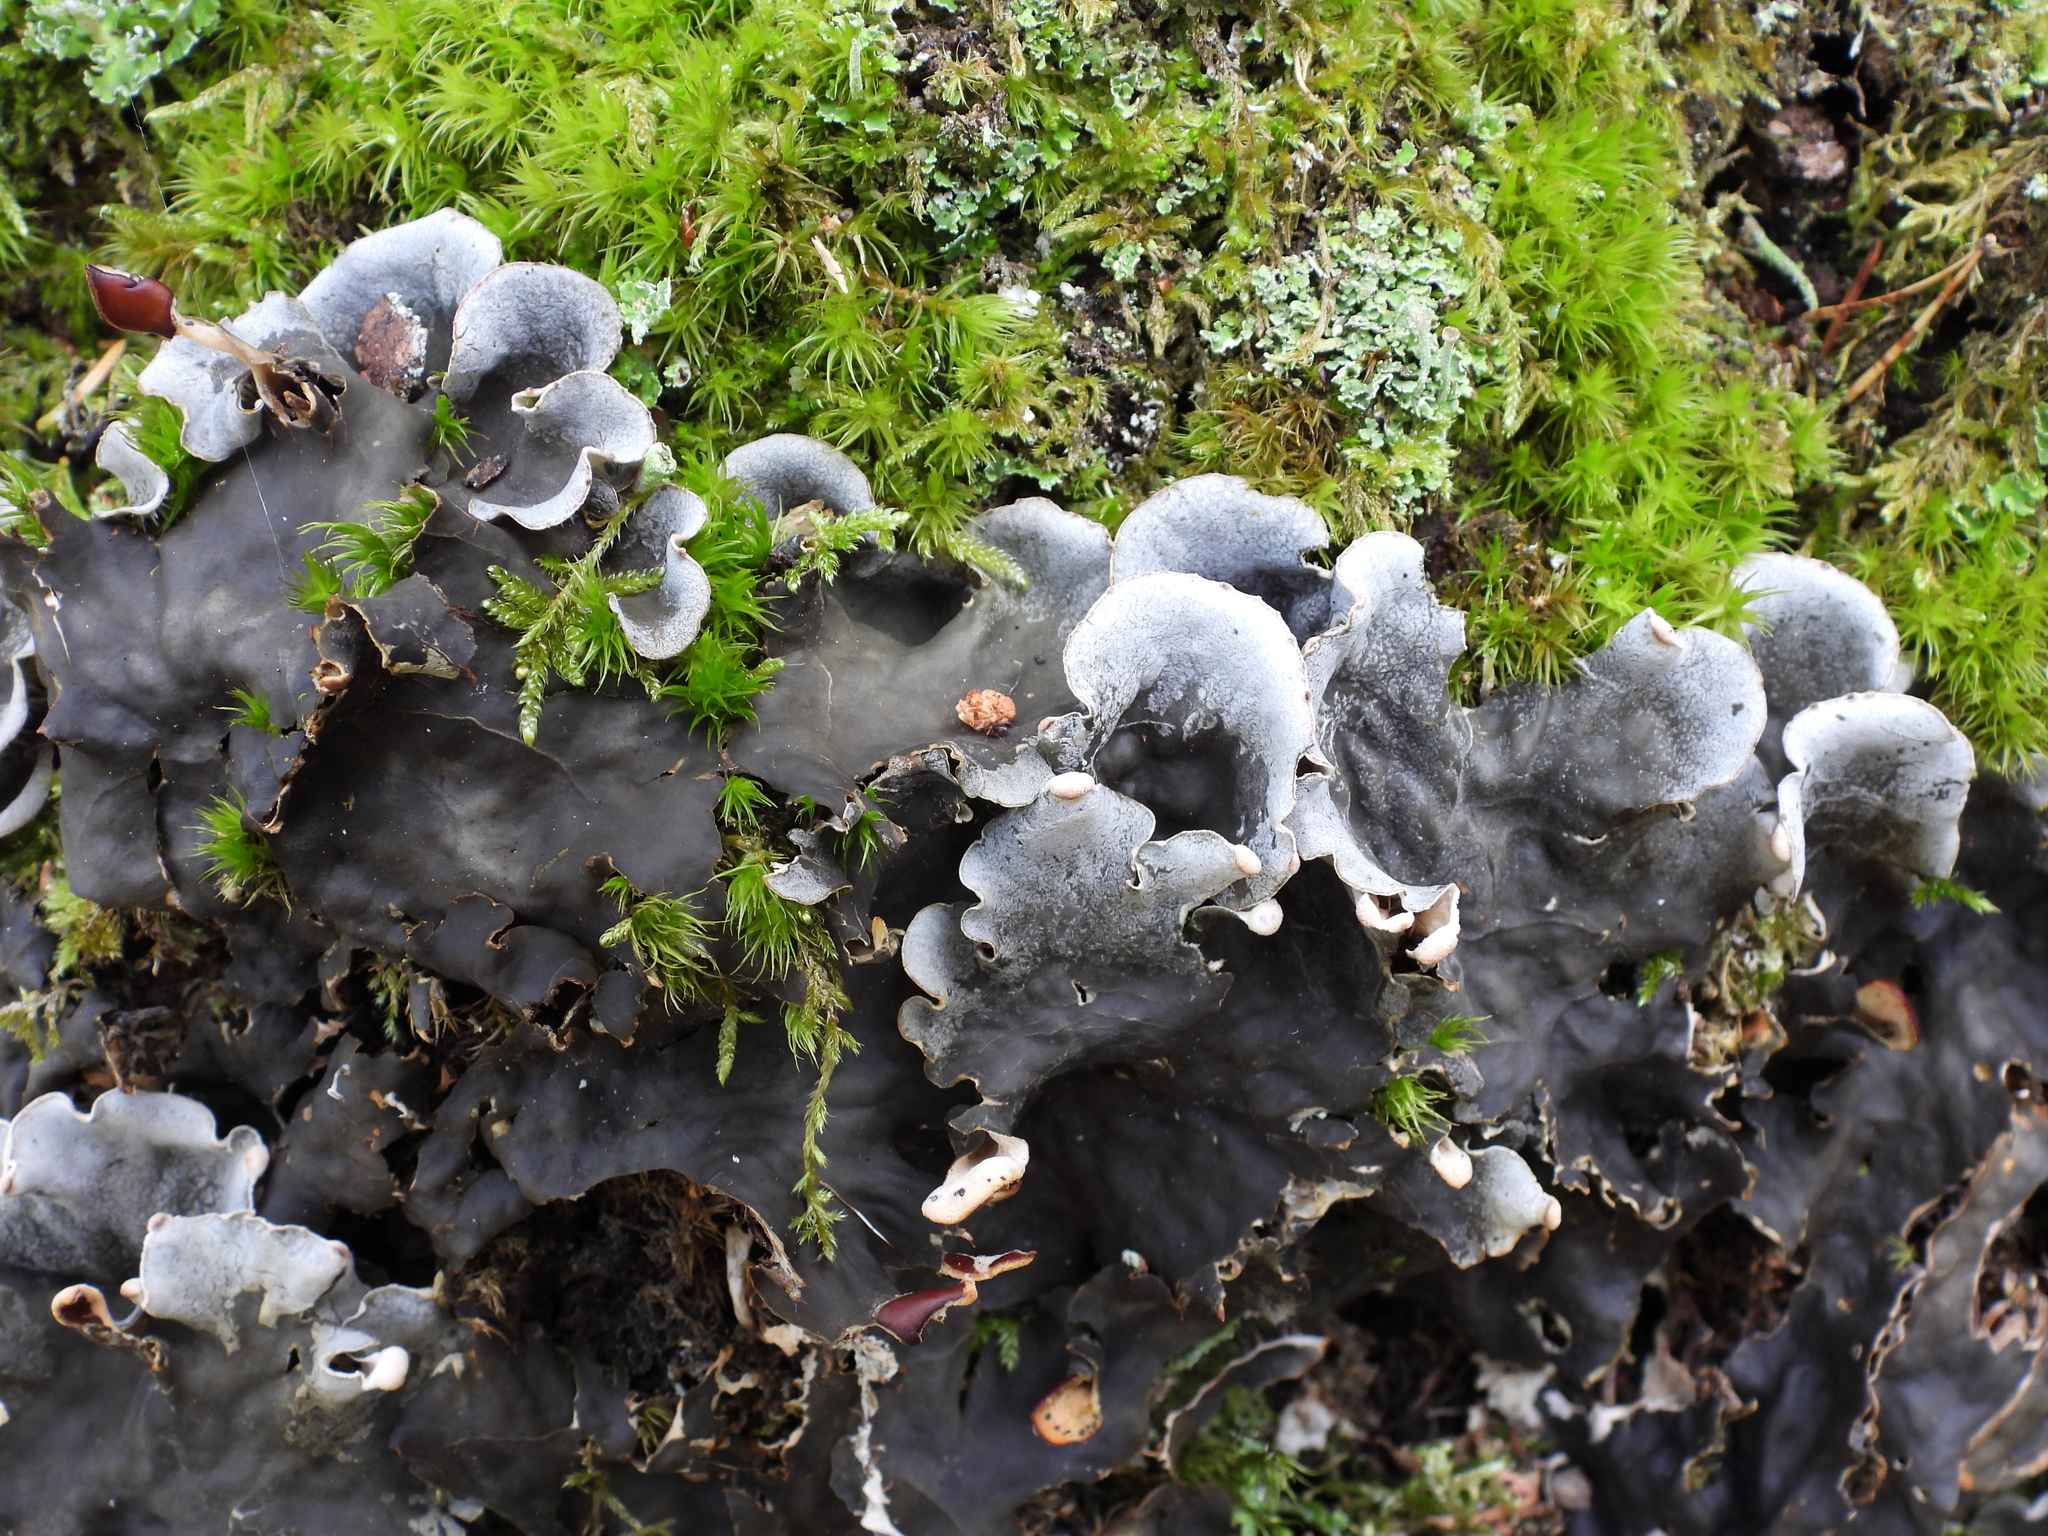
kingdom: Fungi
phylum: Ascomycota
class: Lecanoromycetes
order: Peltigerales
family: Peltigeraceae
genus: Peltigera
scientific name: Peltigera praetextata
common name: Scaly dog-lichen
